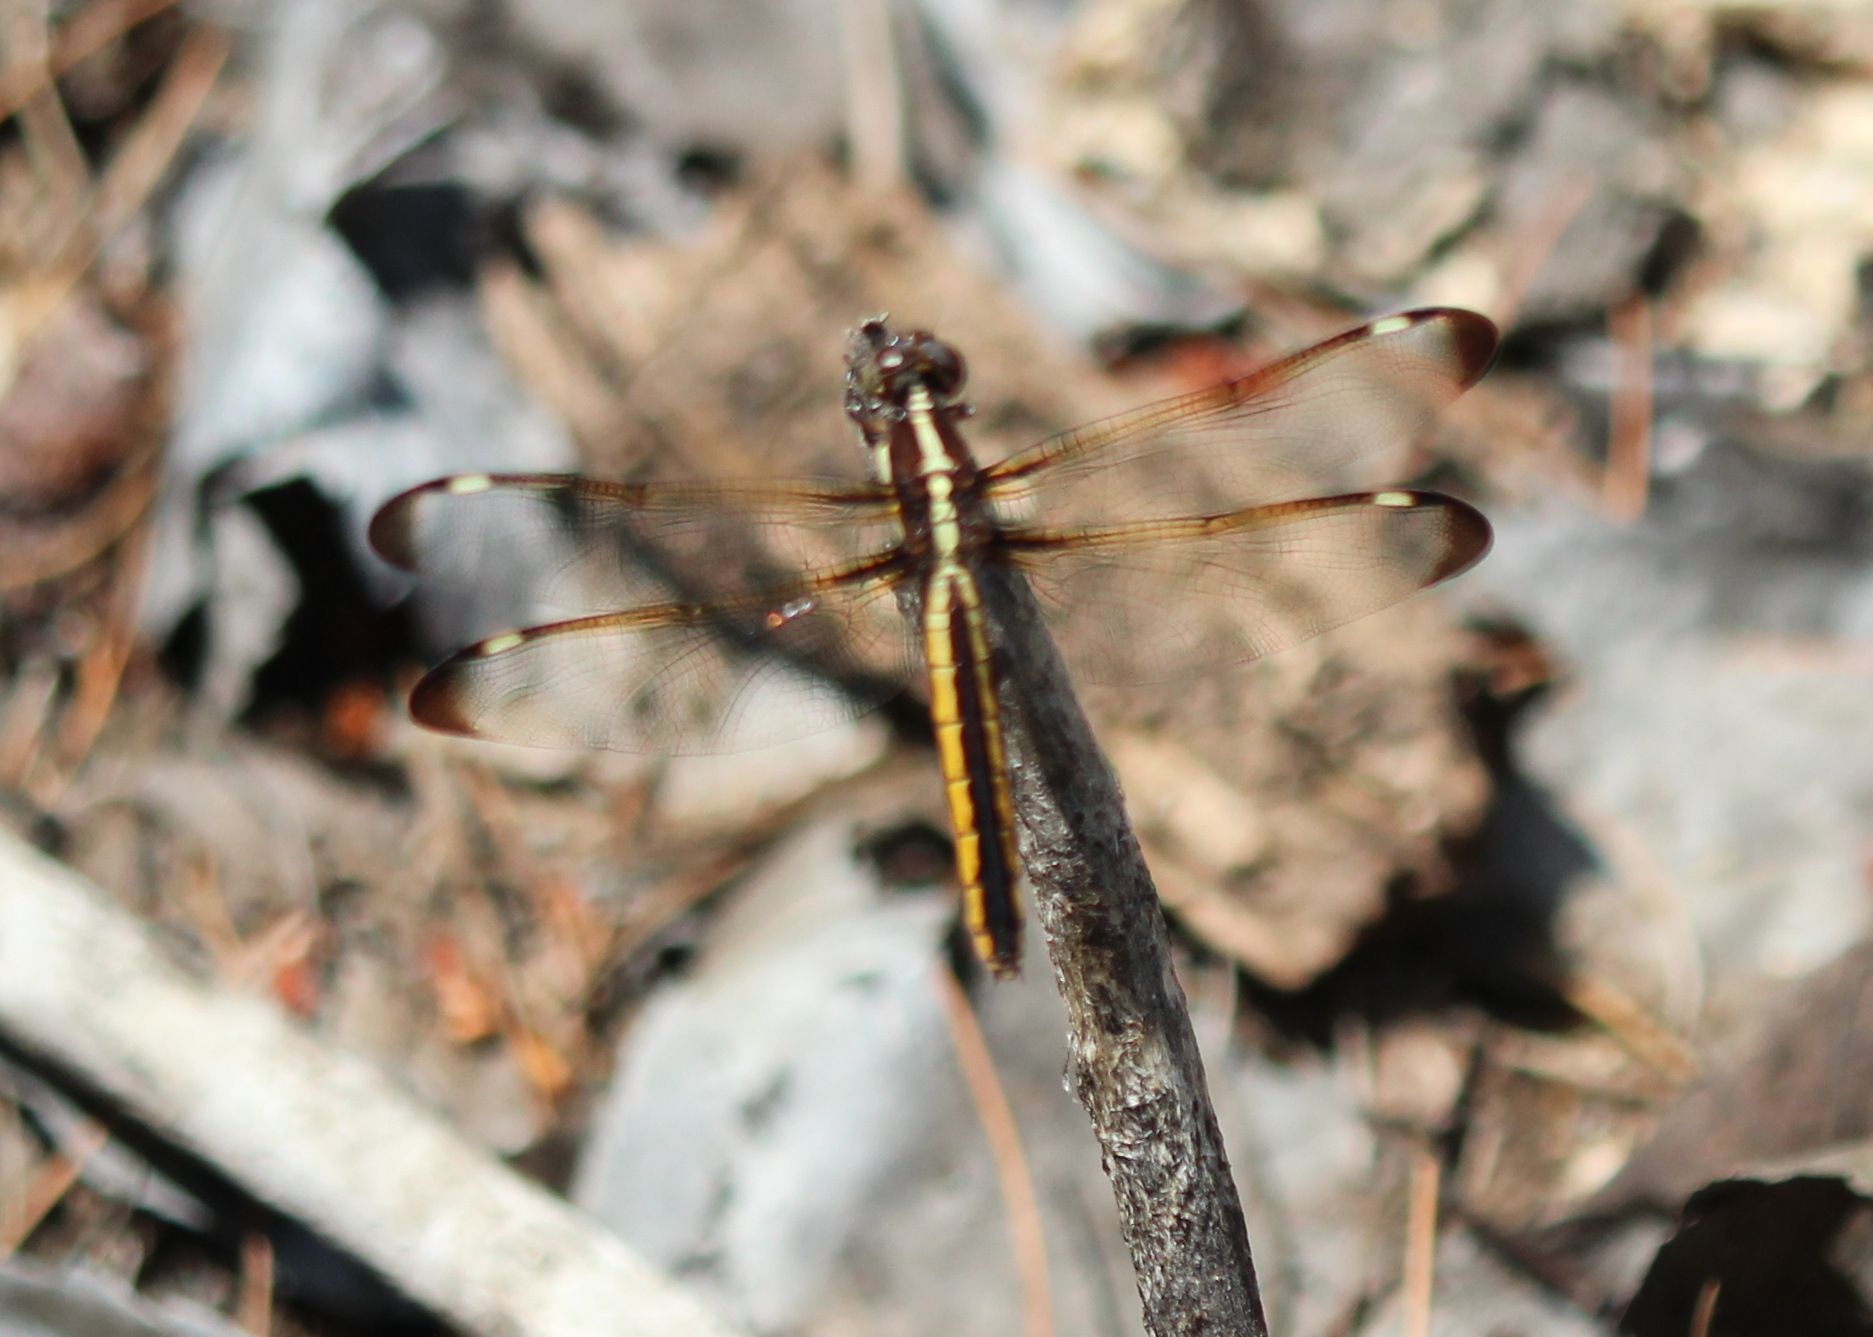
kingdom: Animalia
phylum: Arthropoda
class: Insecta
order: Odonata
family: Libellulidae
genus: Libellula
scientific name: Libellula cyanea
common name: Spangled skimmer
